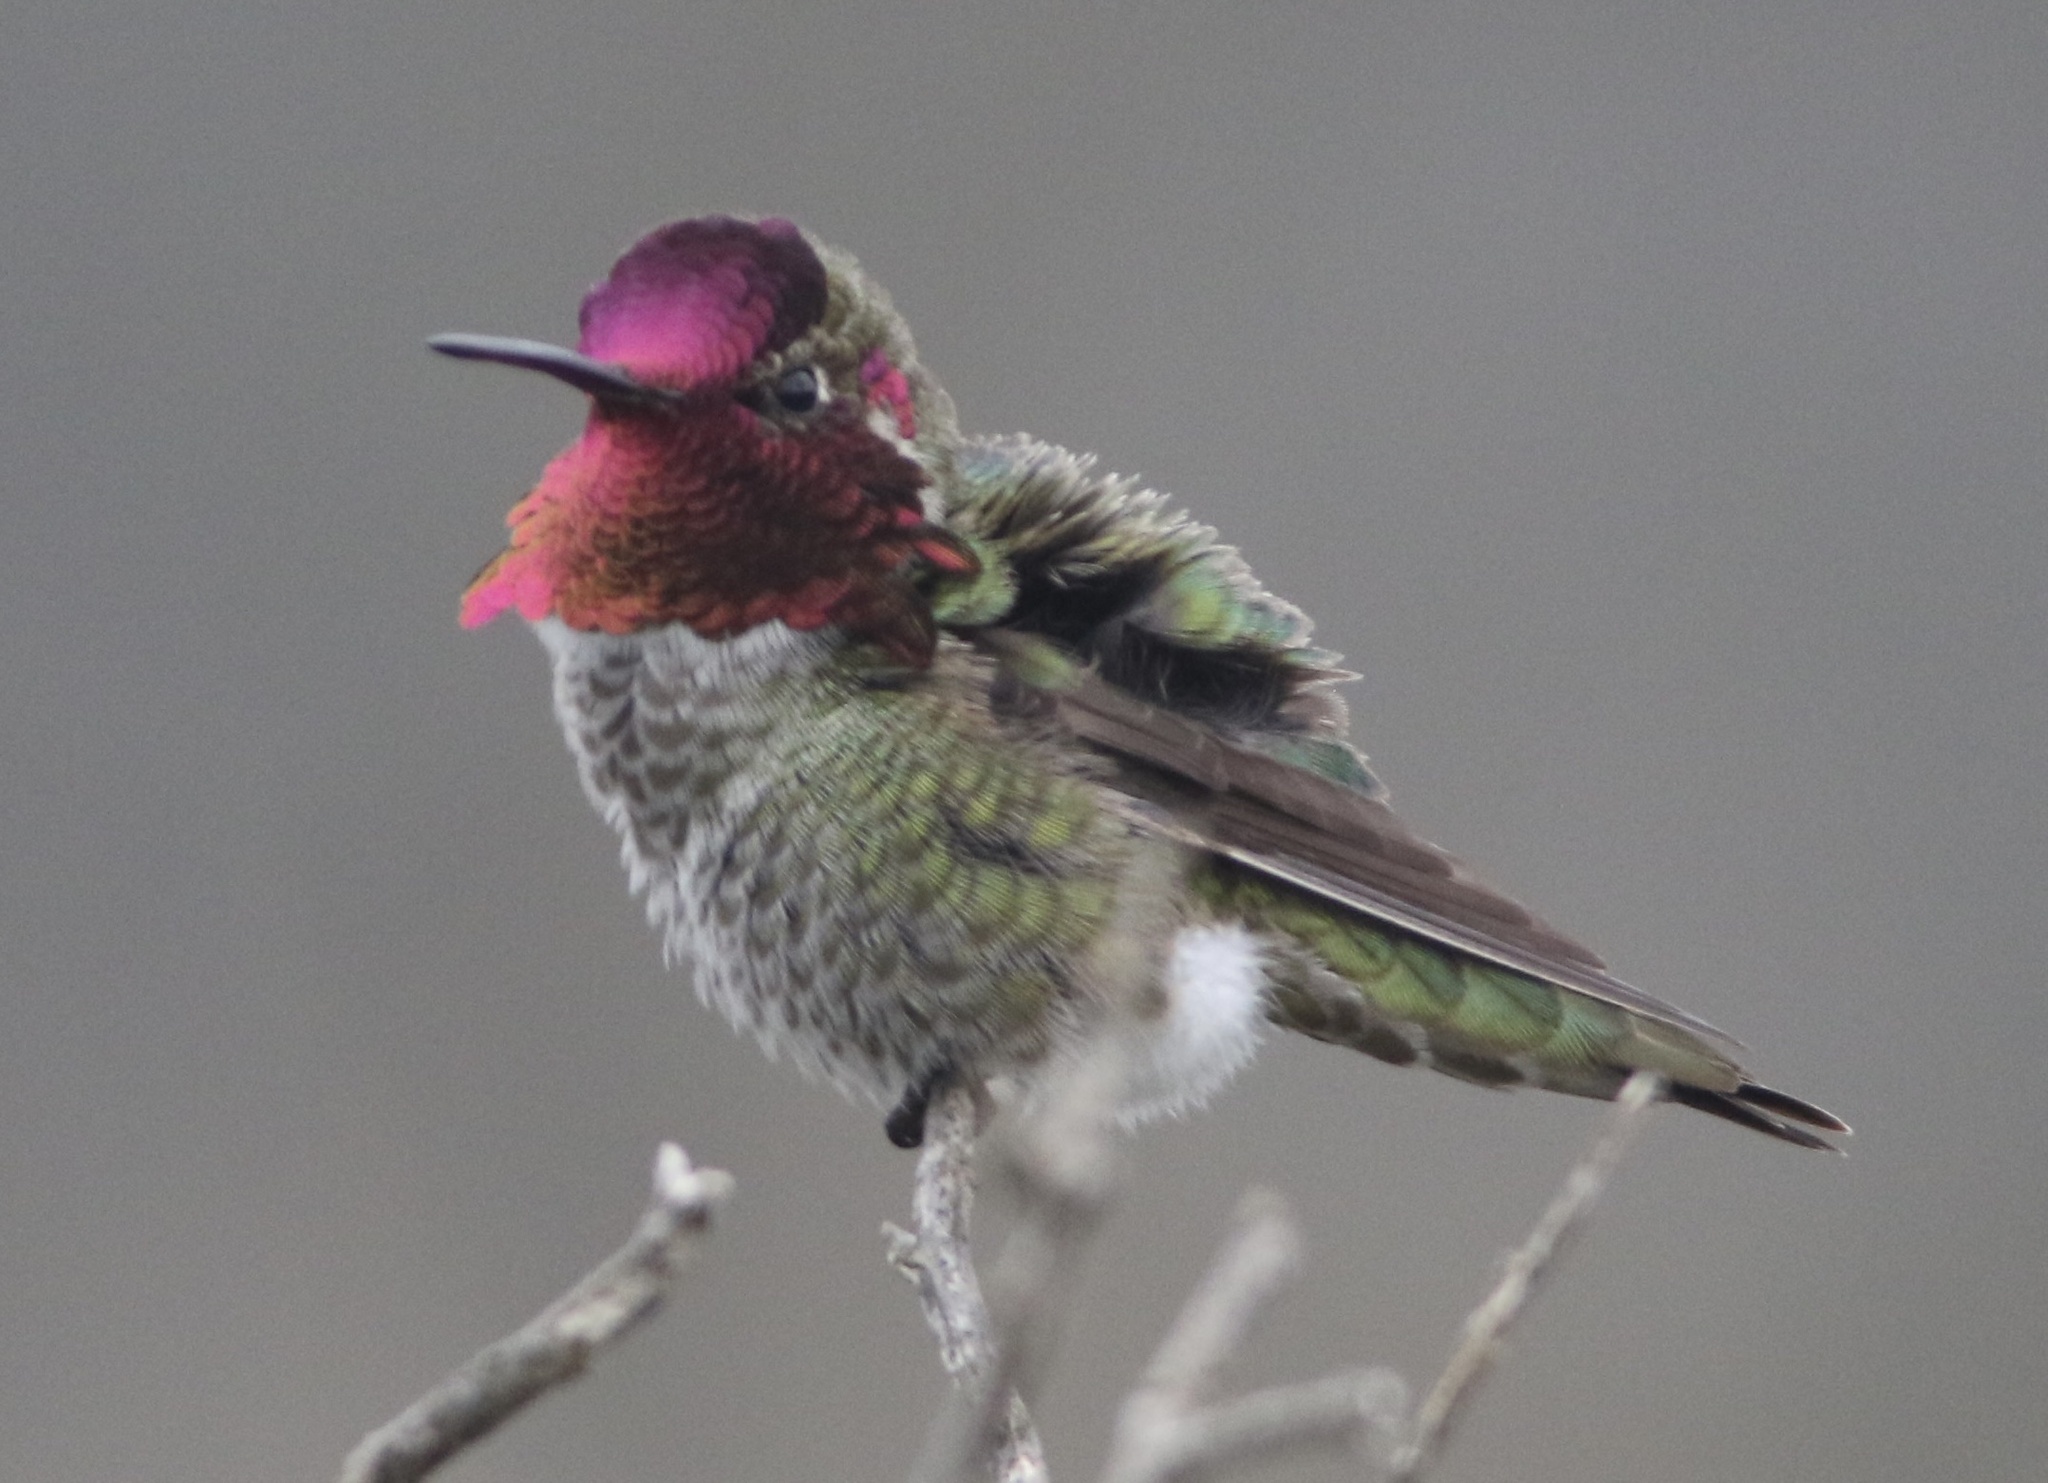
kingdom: Animalia
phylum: Chordata
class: Aves
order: Apodiformes
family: Trochilidae
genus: Calypte
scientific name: Calypte anna
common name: Anna's hummingbird
